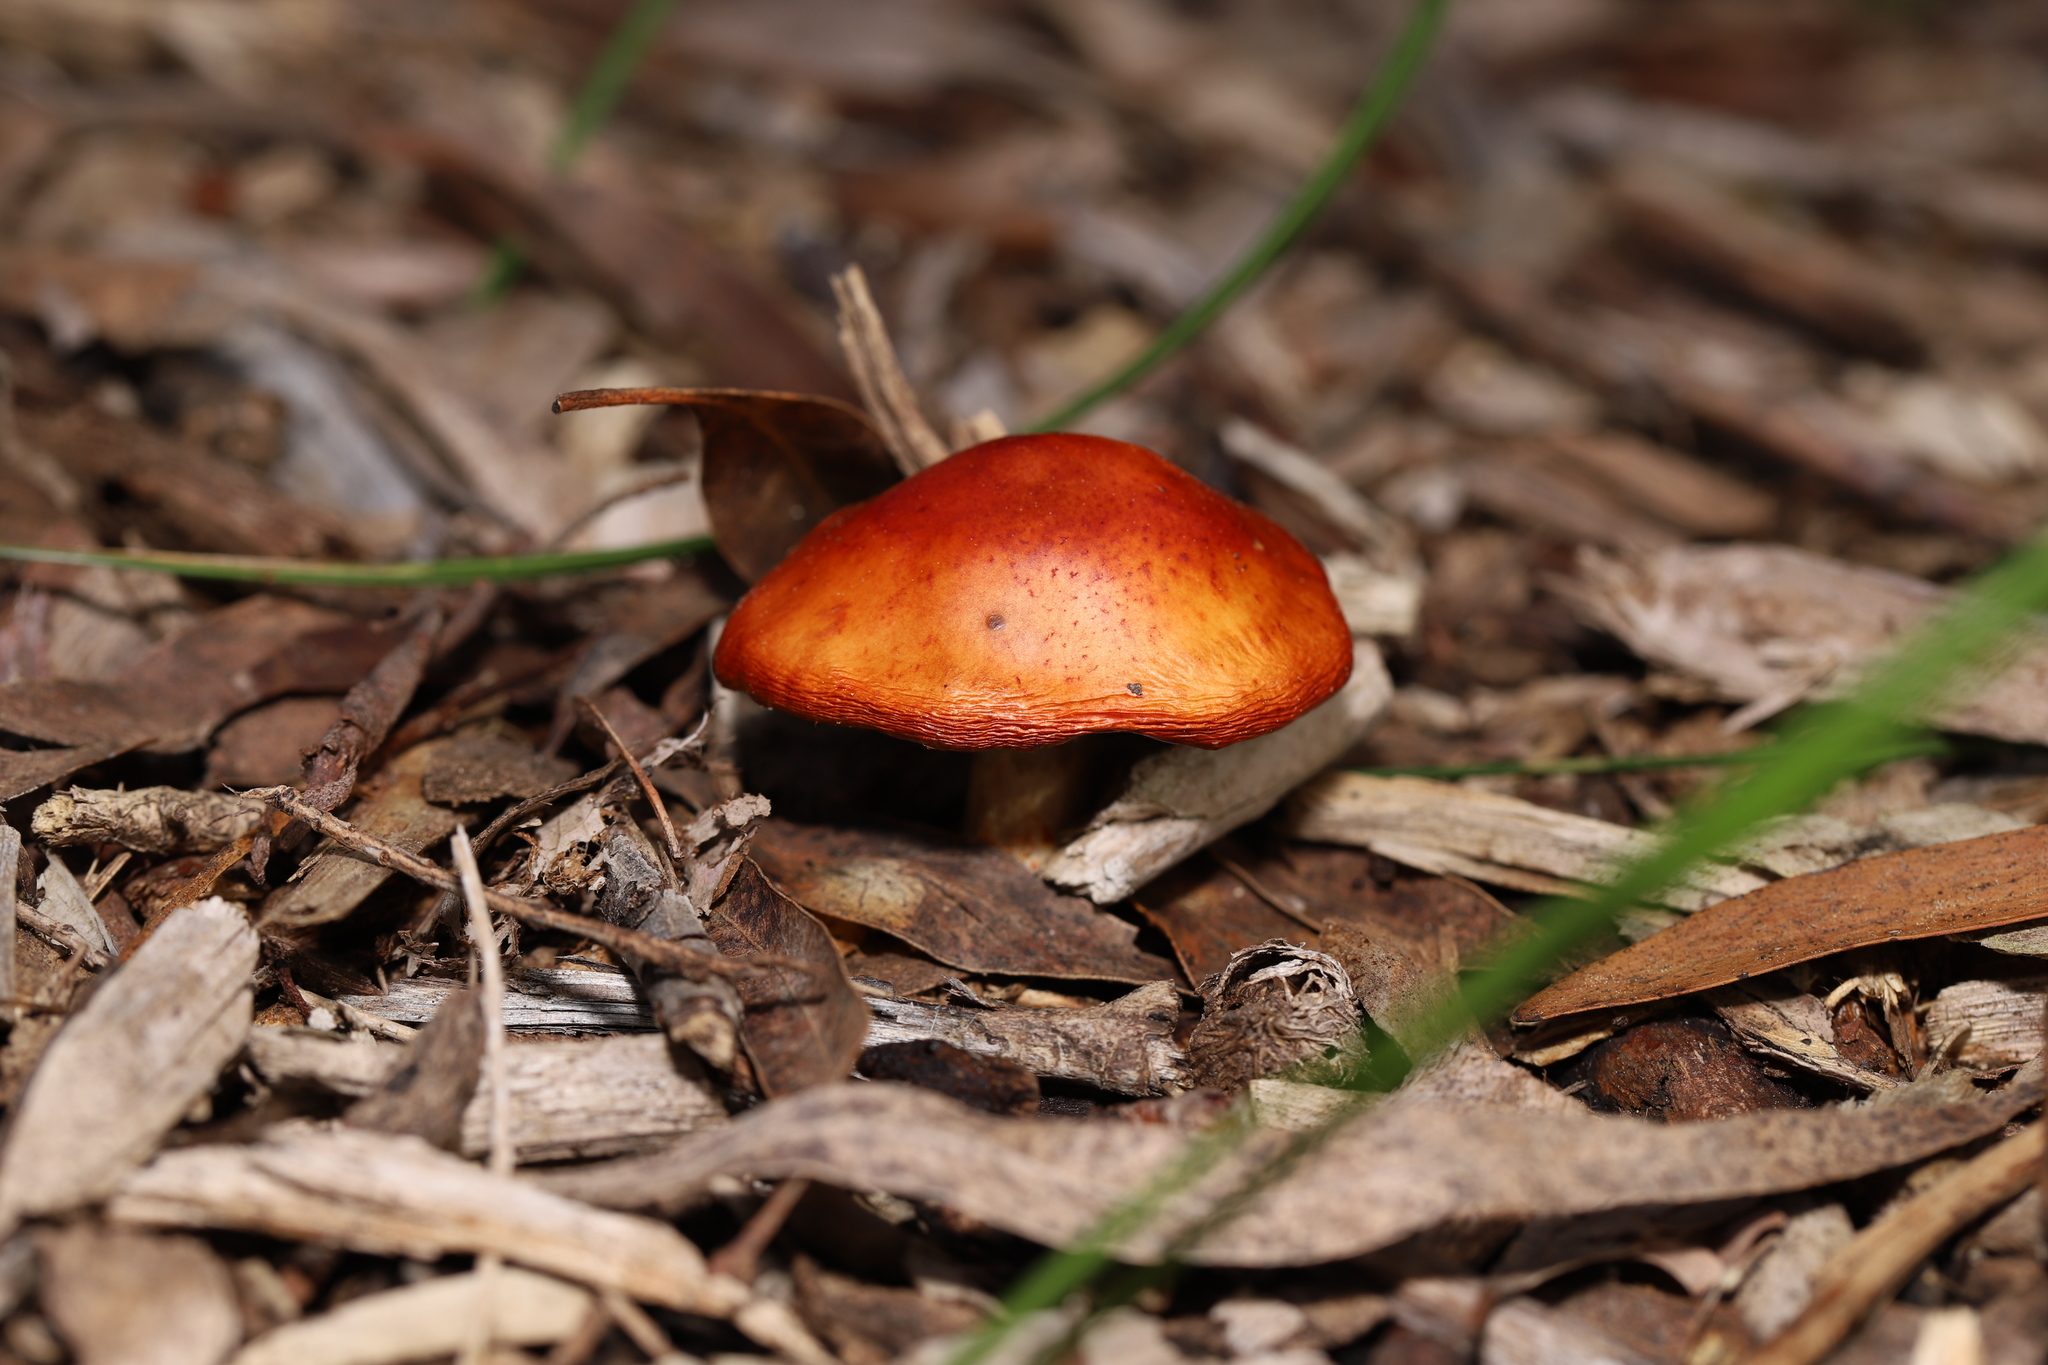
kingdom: Fungi
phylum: Basidiomycota
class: Agaricomycetes
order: Agaricales
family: Strophariaceae
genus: Leratiomyces
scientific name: Leratiomyces ceres
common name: Redlead roundhead
